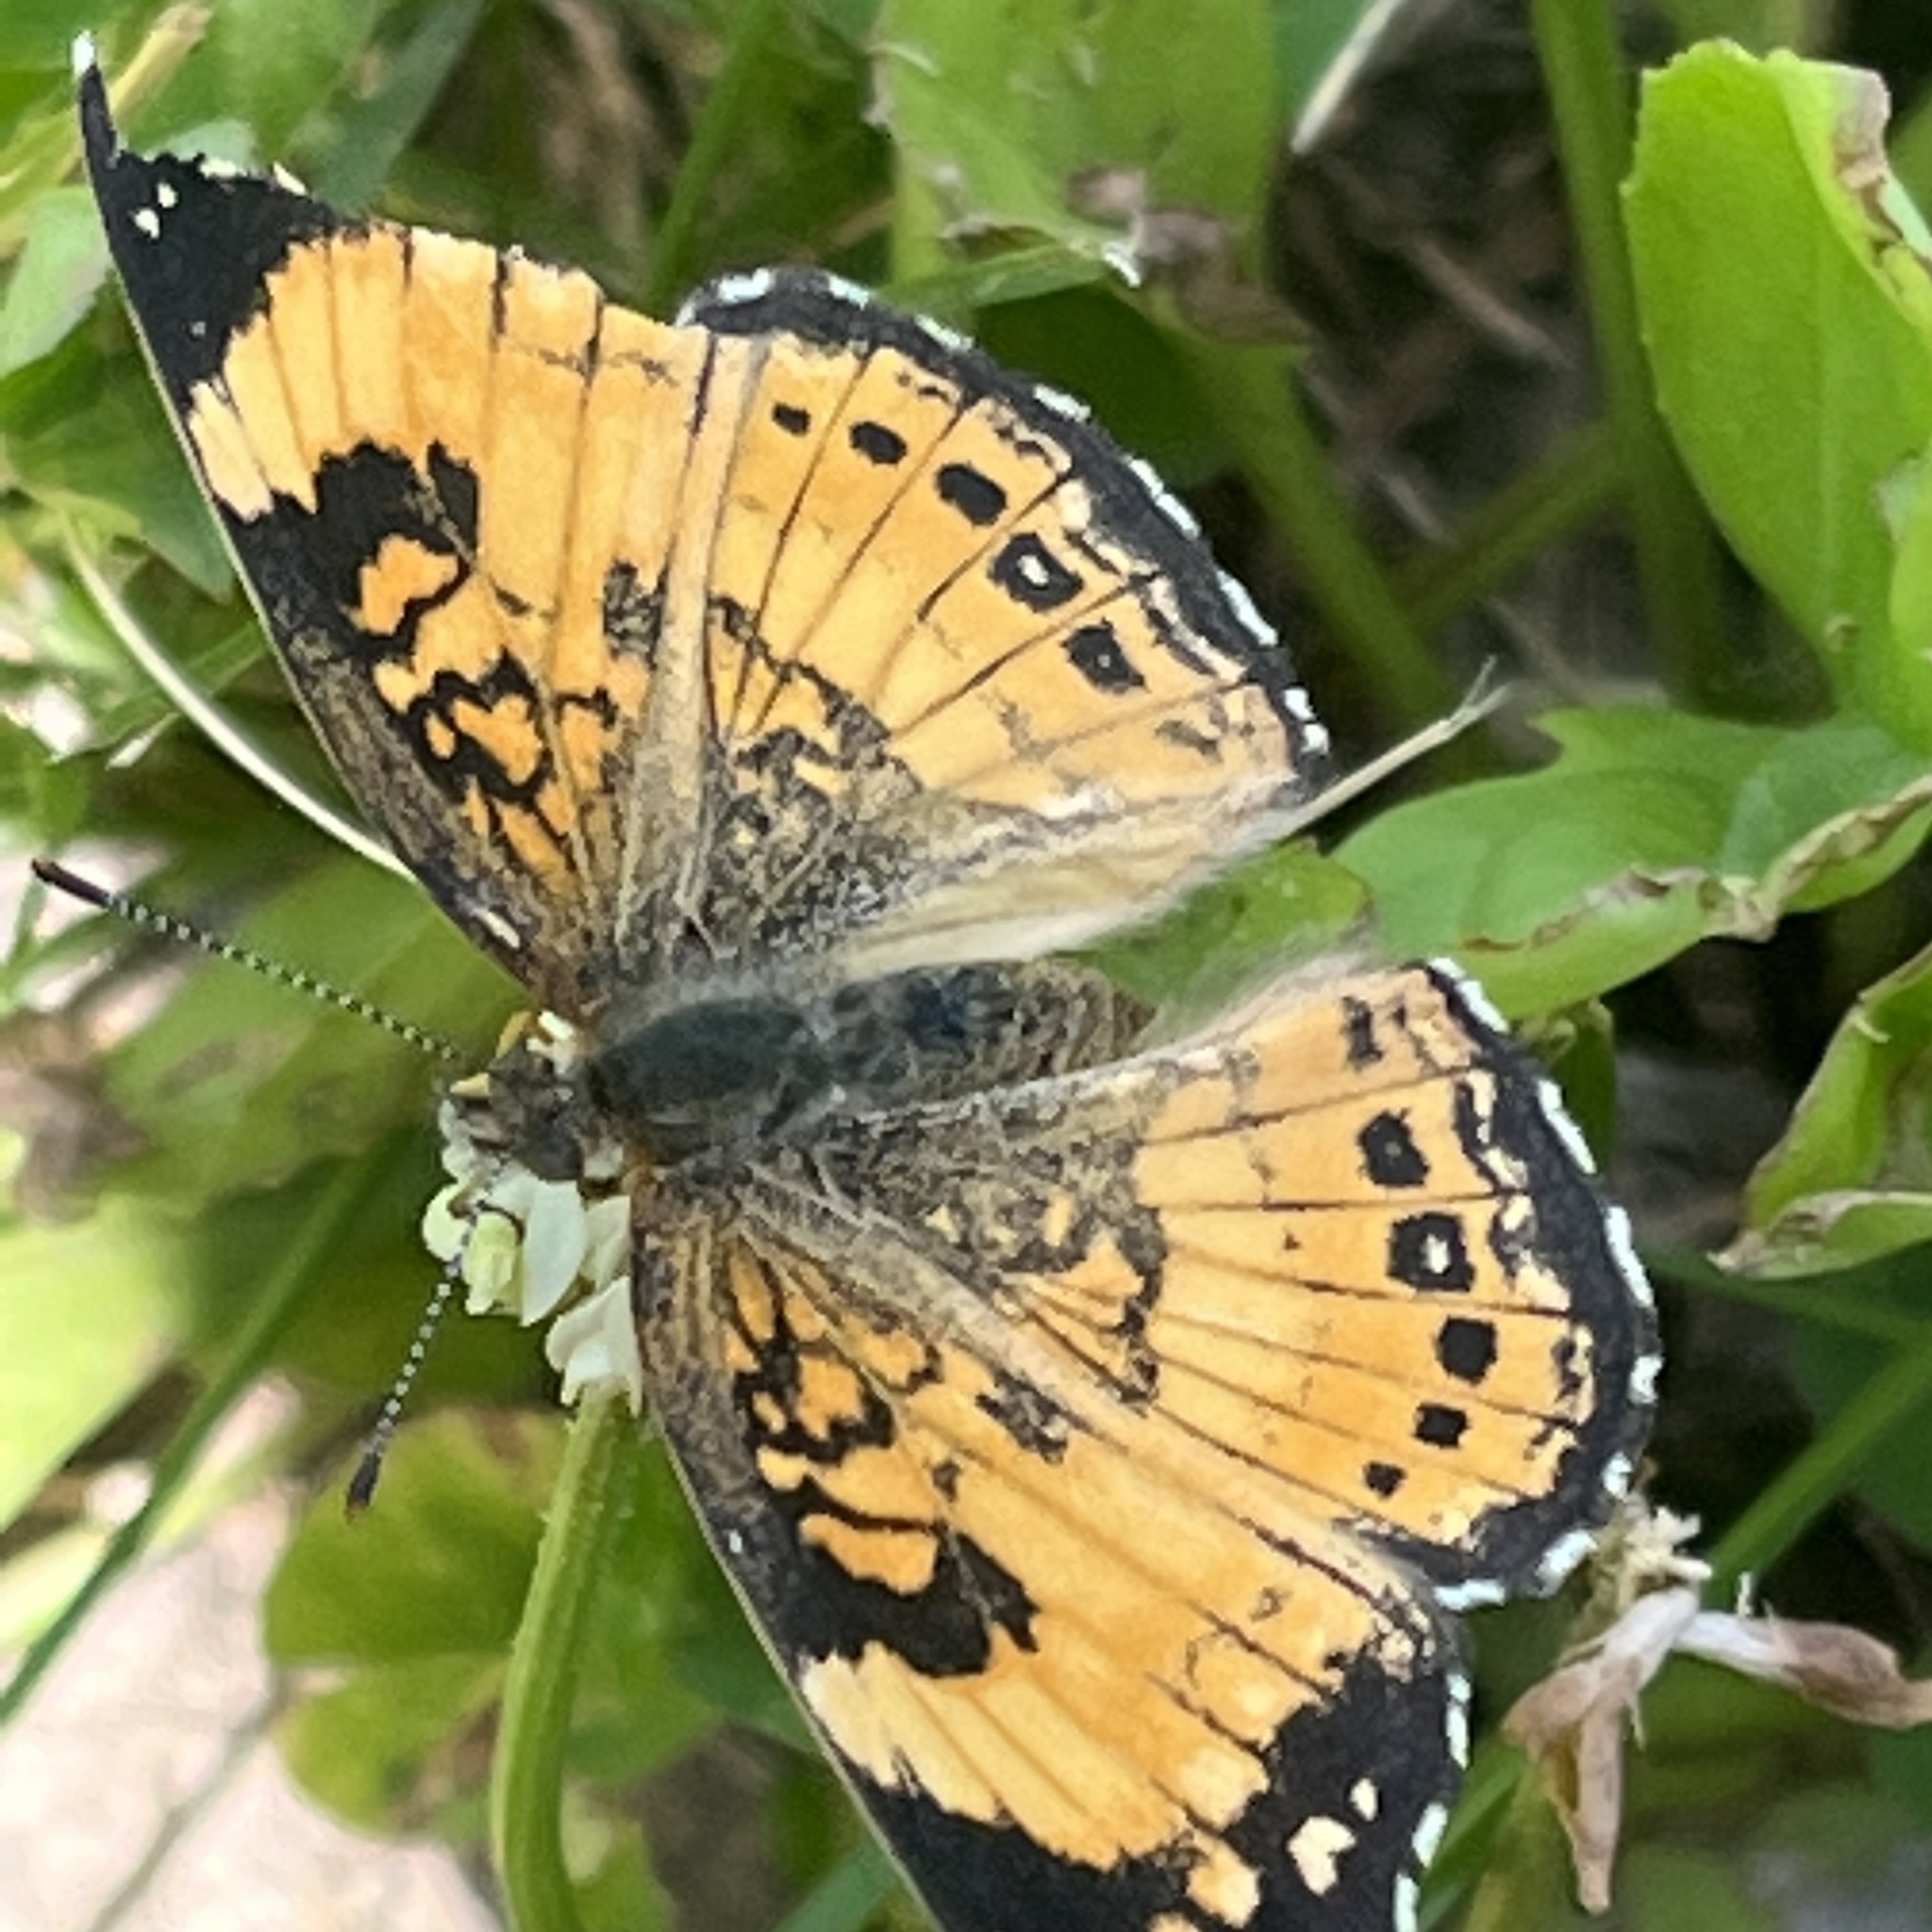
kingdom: Animalia
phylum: Arthropoda
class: Insecta
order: Lepidoptera
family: Nymphalidae
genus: Chlosyne
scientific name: Chlosyne nycteis
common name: Silvery checkerspot
